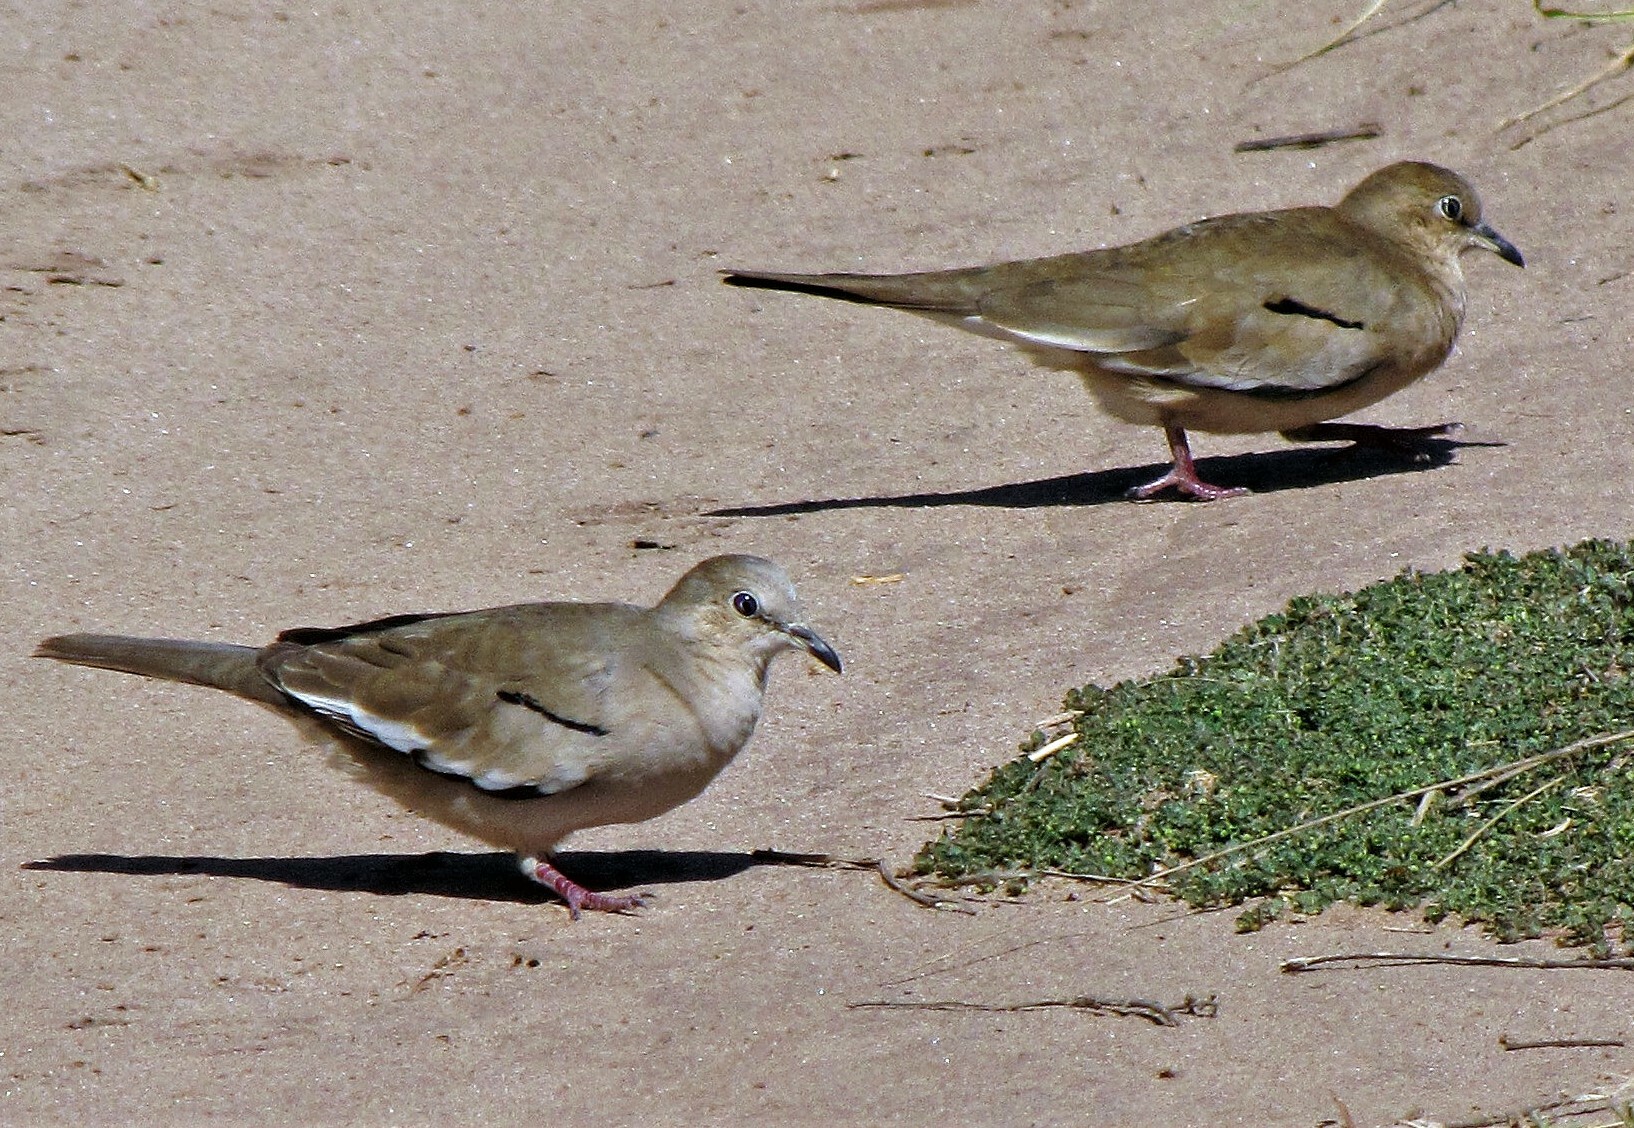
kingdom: Animalia
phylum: Chordata
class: Aves
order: Columbiformes
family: Columbidae
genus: Columbina
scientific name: Columbina picui
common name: Picui ground dove
